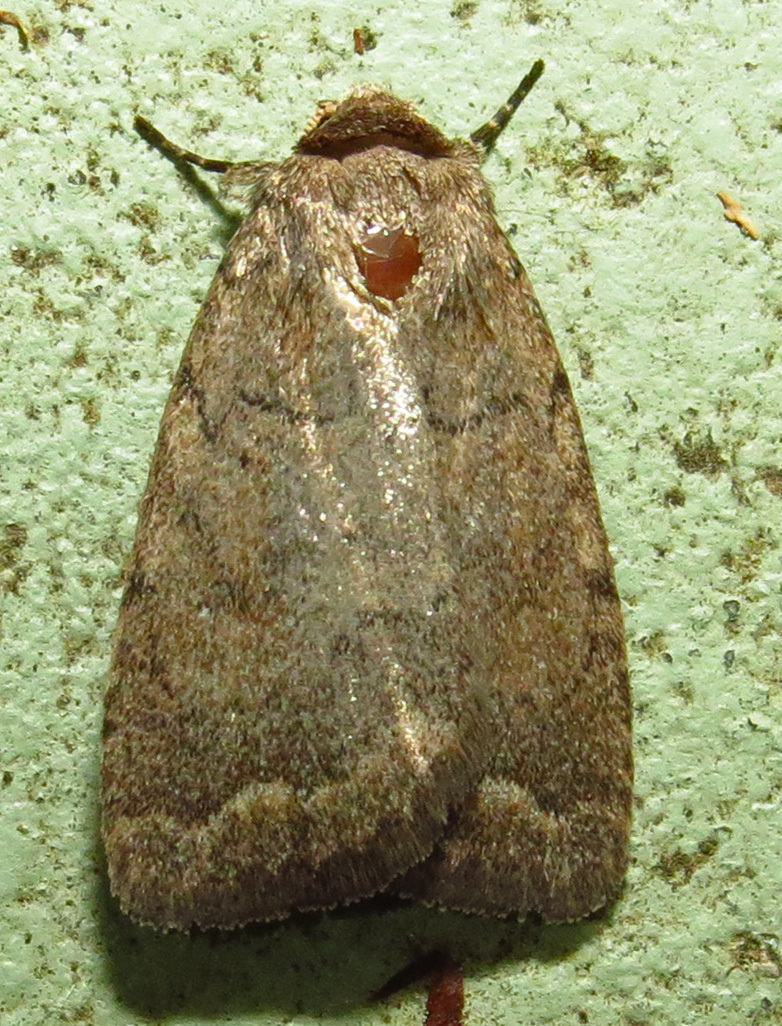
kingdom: Animalia
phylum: Arthropoda
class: Insecta
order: Lepidoptera
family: Noctuidae
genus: Athetis
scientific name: Athetis tarda
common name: Slowpoke moth
